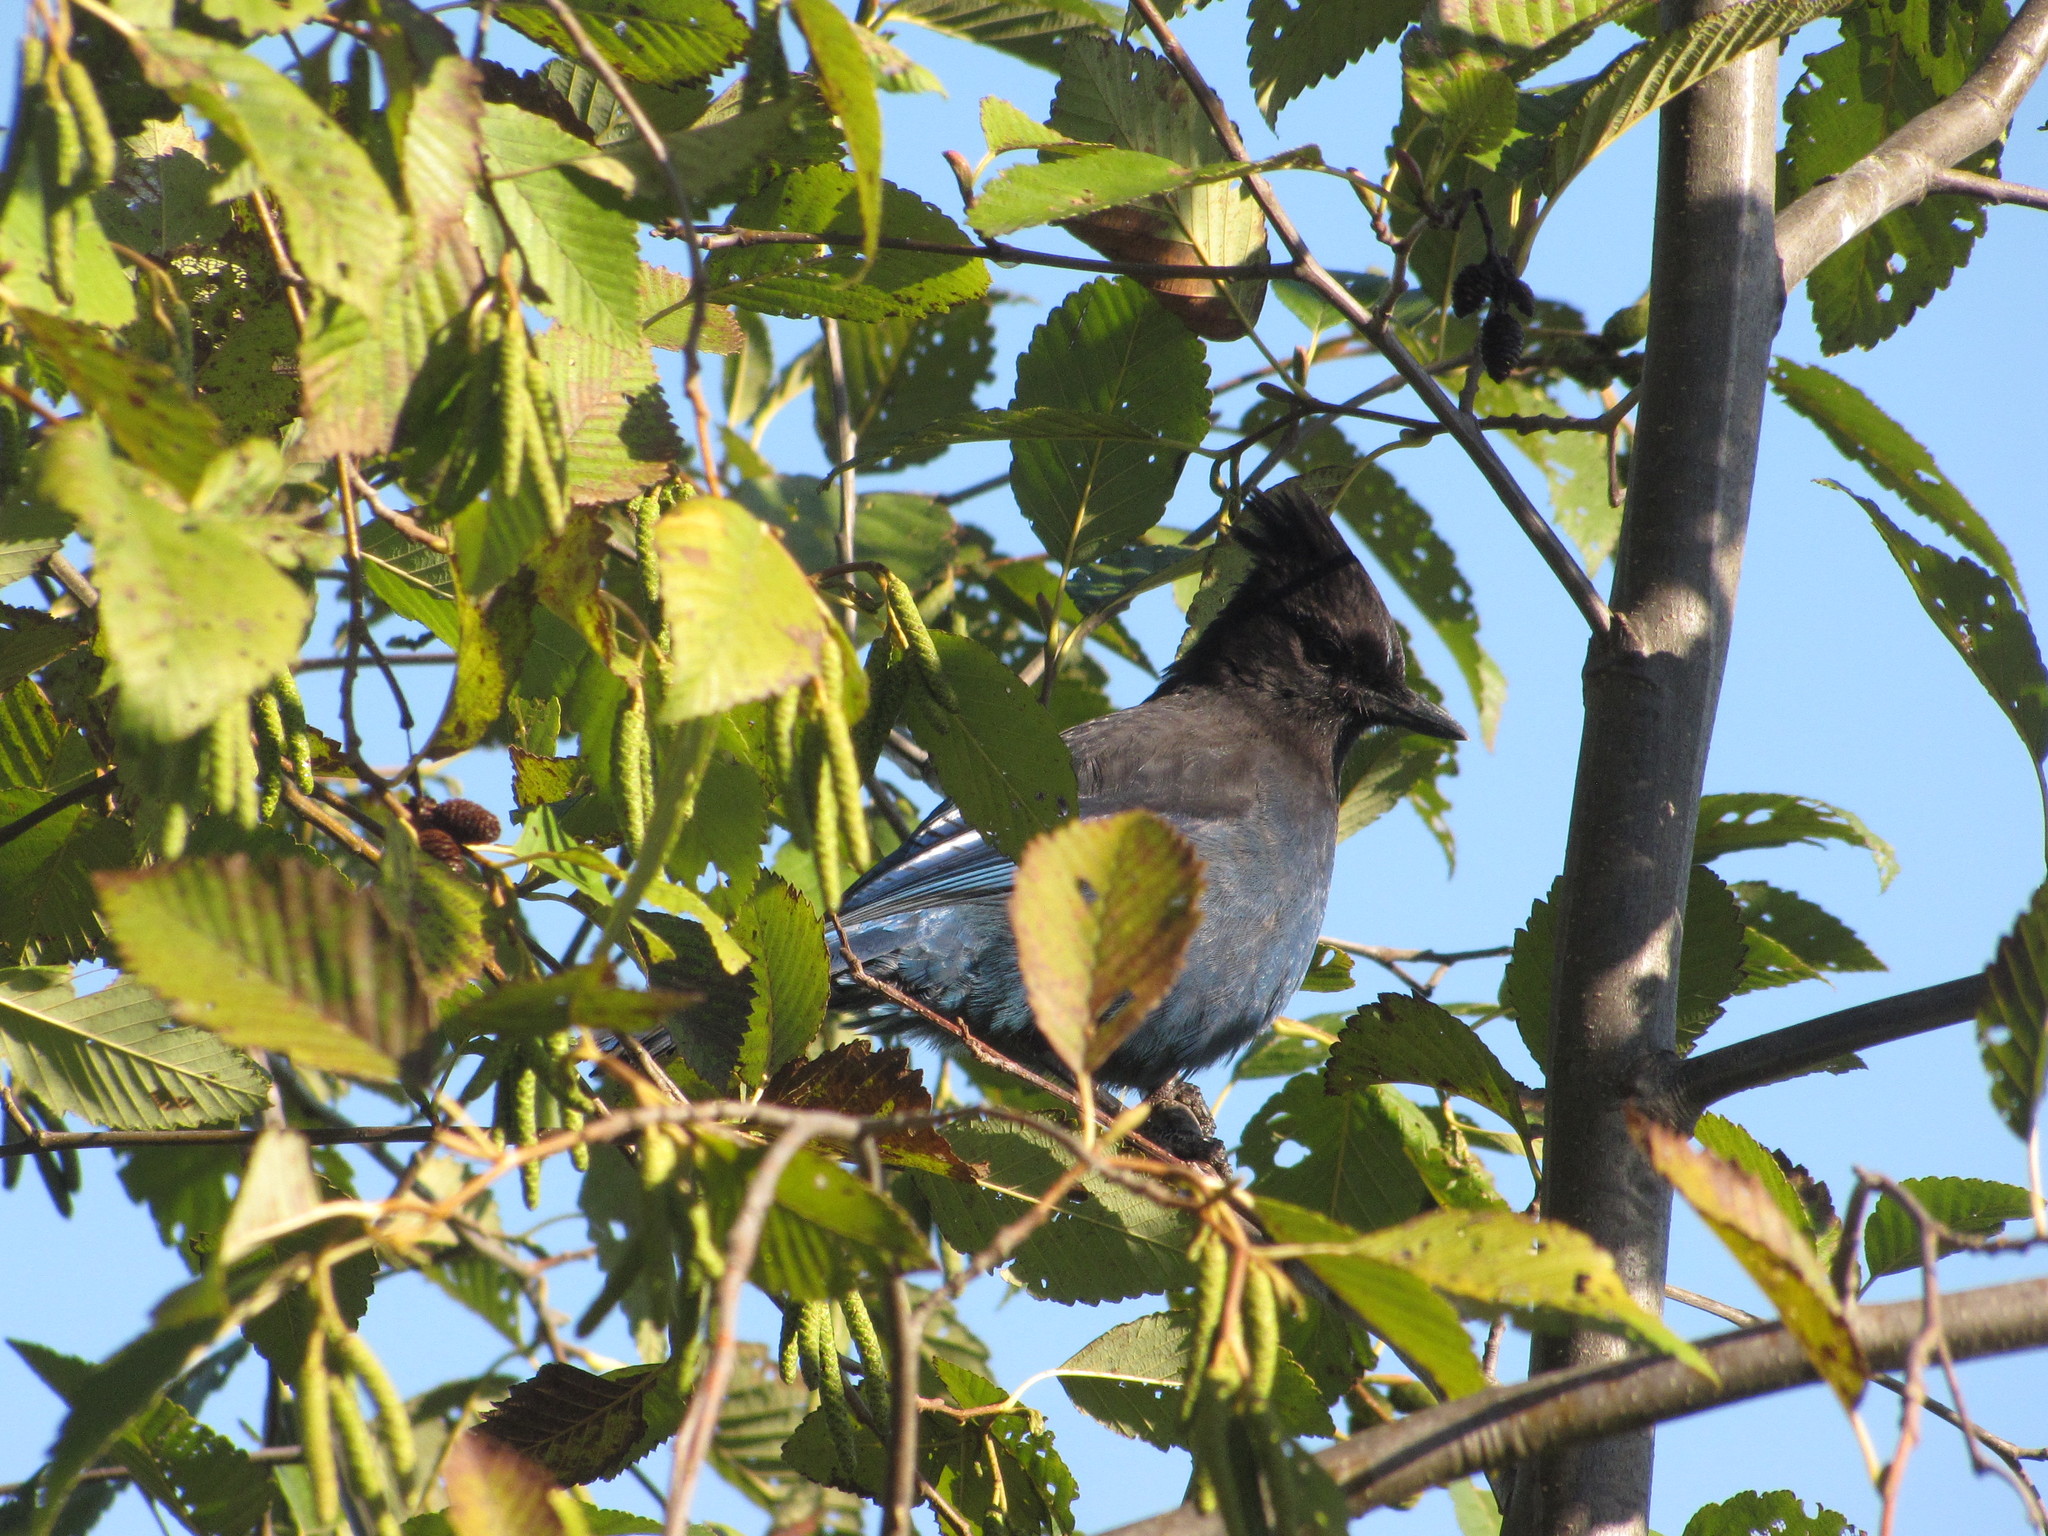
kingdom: Animalia
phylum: Chordata
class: Aves
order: Passeriformes
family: Corvidae
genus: Cyanocitta
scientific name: Cyanocitta stelleri
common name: Steller's jay
